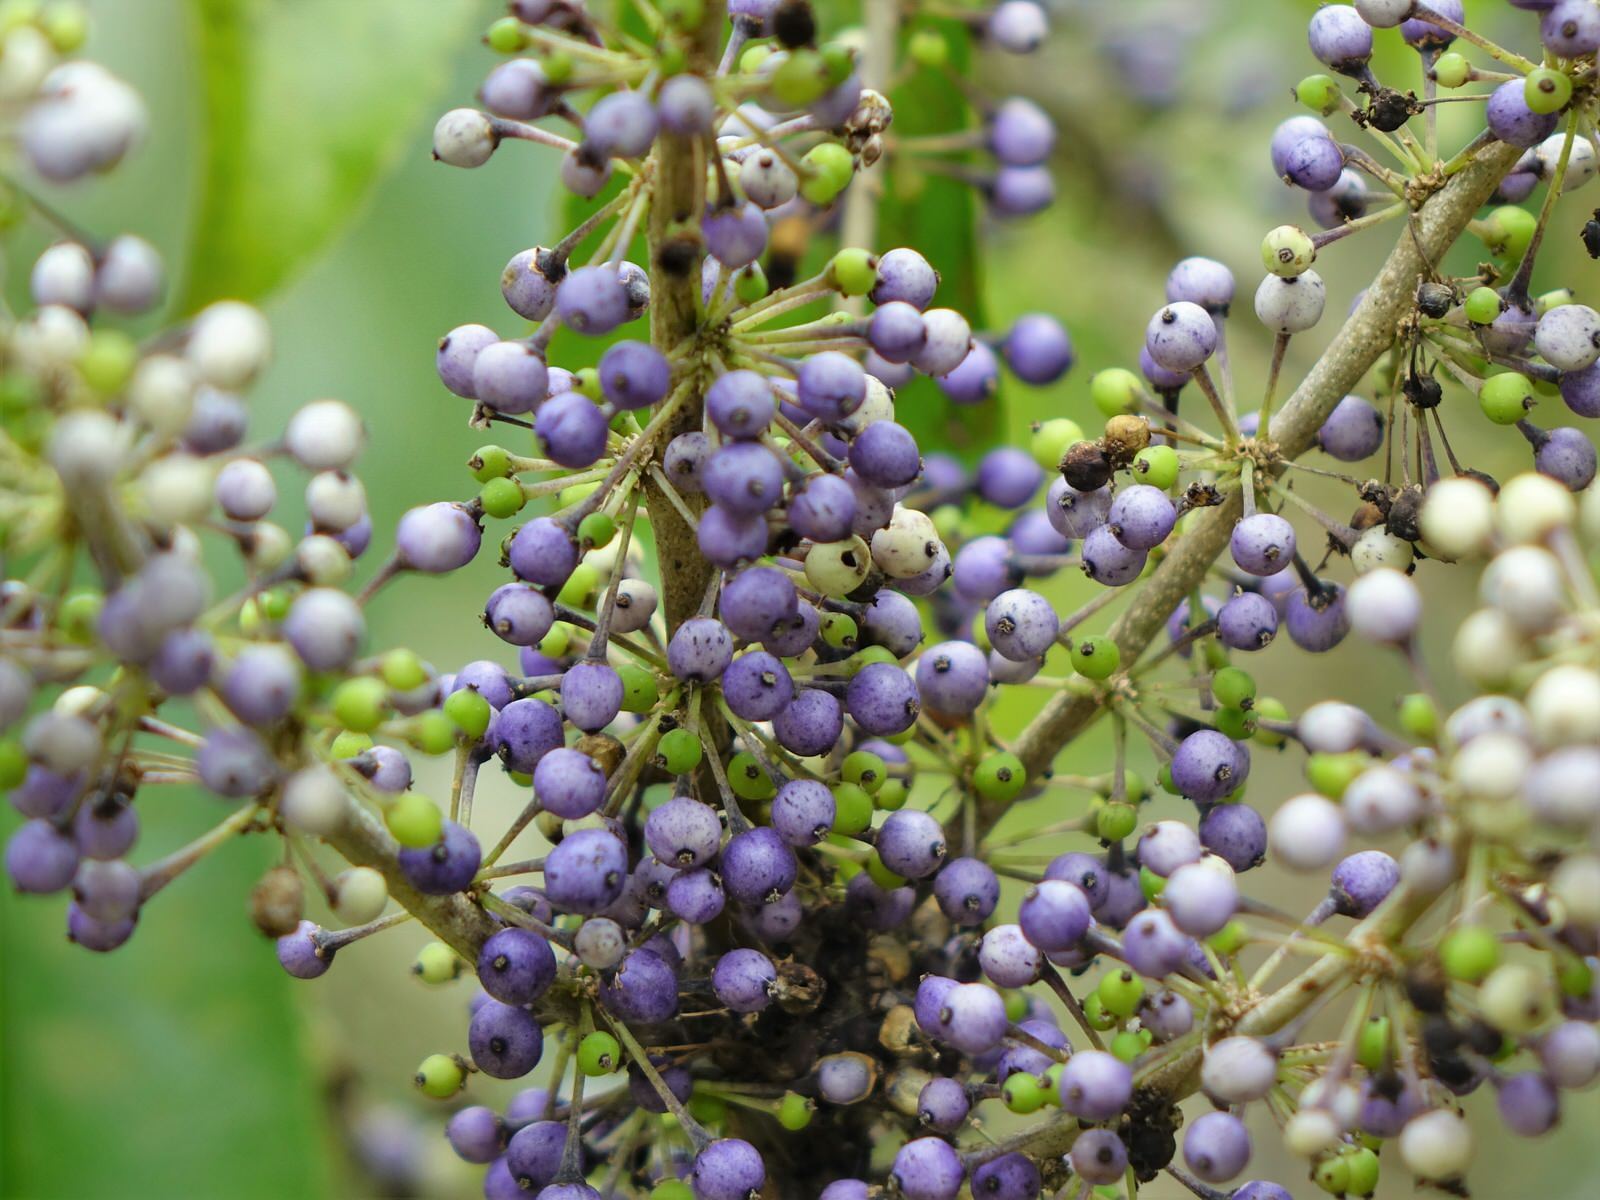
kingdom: Plantae
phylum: Tracheophyta
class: Magnoliopsida
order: Malpighiales
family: Violaceae
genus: Melicytus
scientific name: Melicytus ramiflorus
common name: Mahoe
